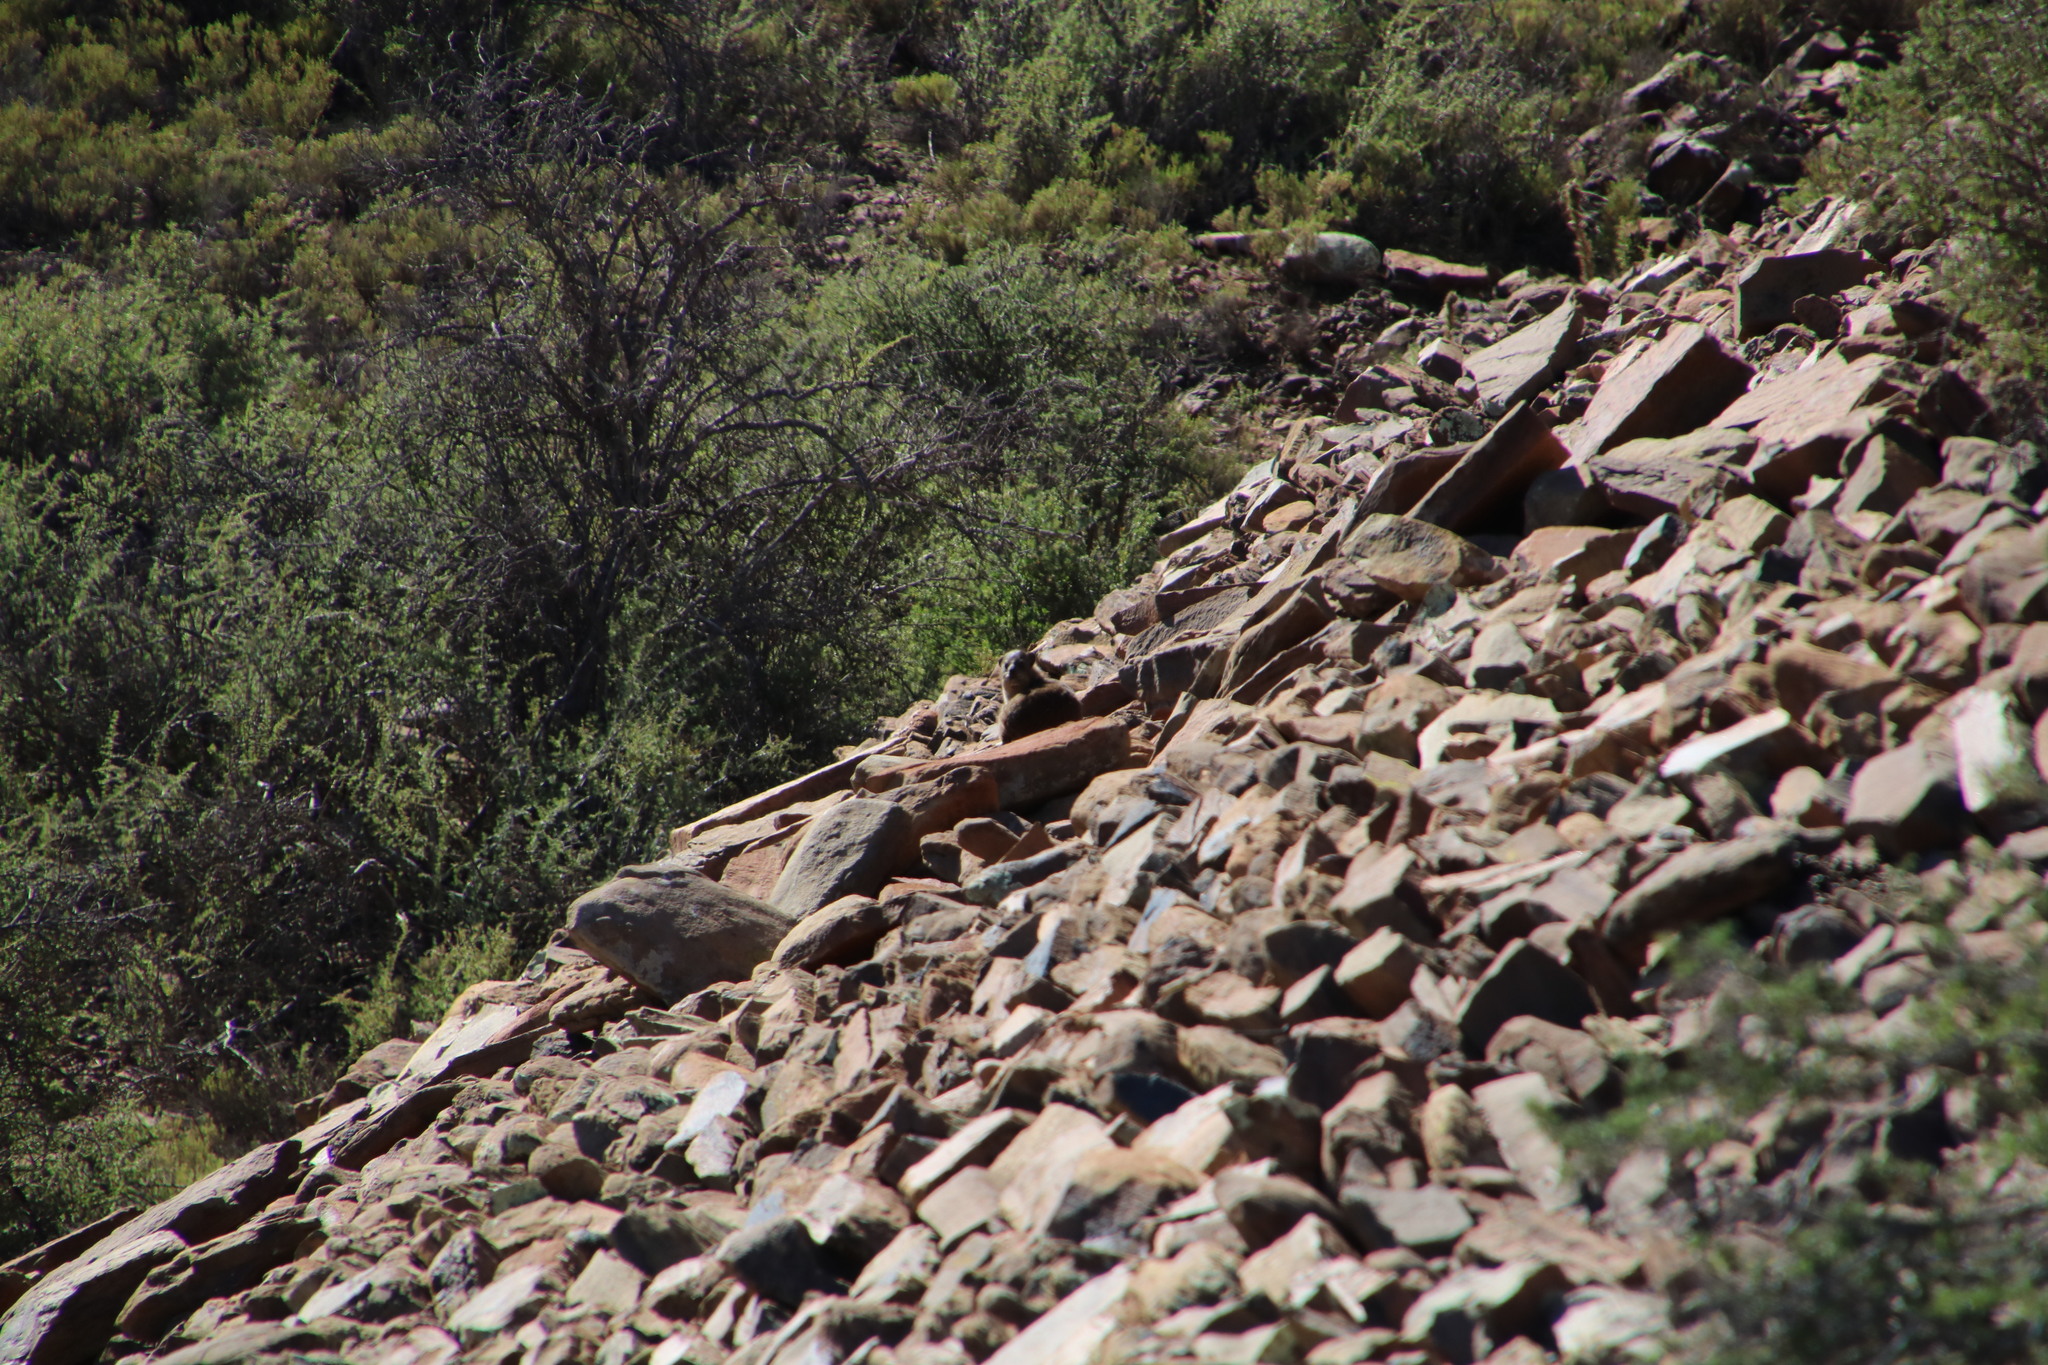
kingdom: Animalia
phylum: Chordata
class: Mammalia
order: Hyracoidea
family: Procaviidae
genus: Procavia
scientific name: Procavia capensis
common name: Rock hyrax
